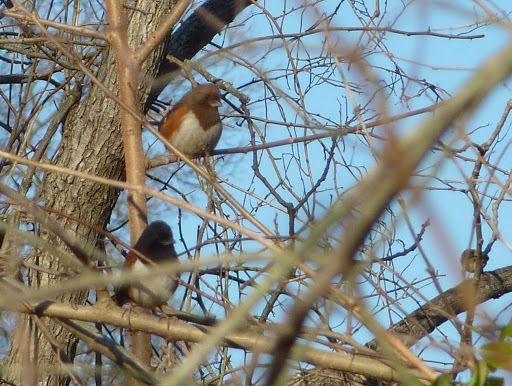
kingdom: Animalia
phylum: Chordata
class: Aves
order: Passeriformes
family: Passerellidae
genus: Pipilo
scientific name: Pipilo erythrophthalmus
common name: Eastern towhee
